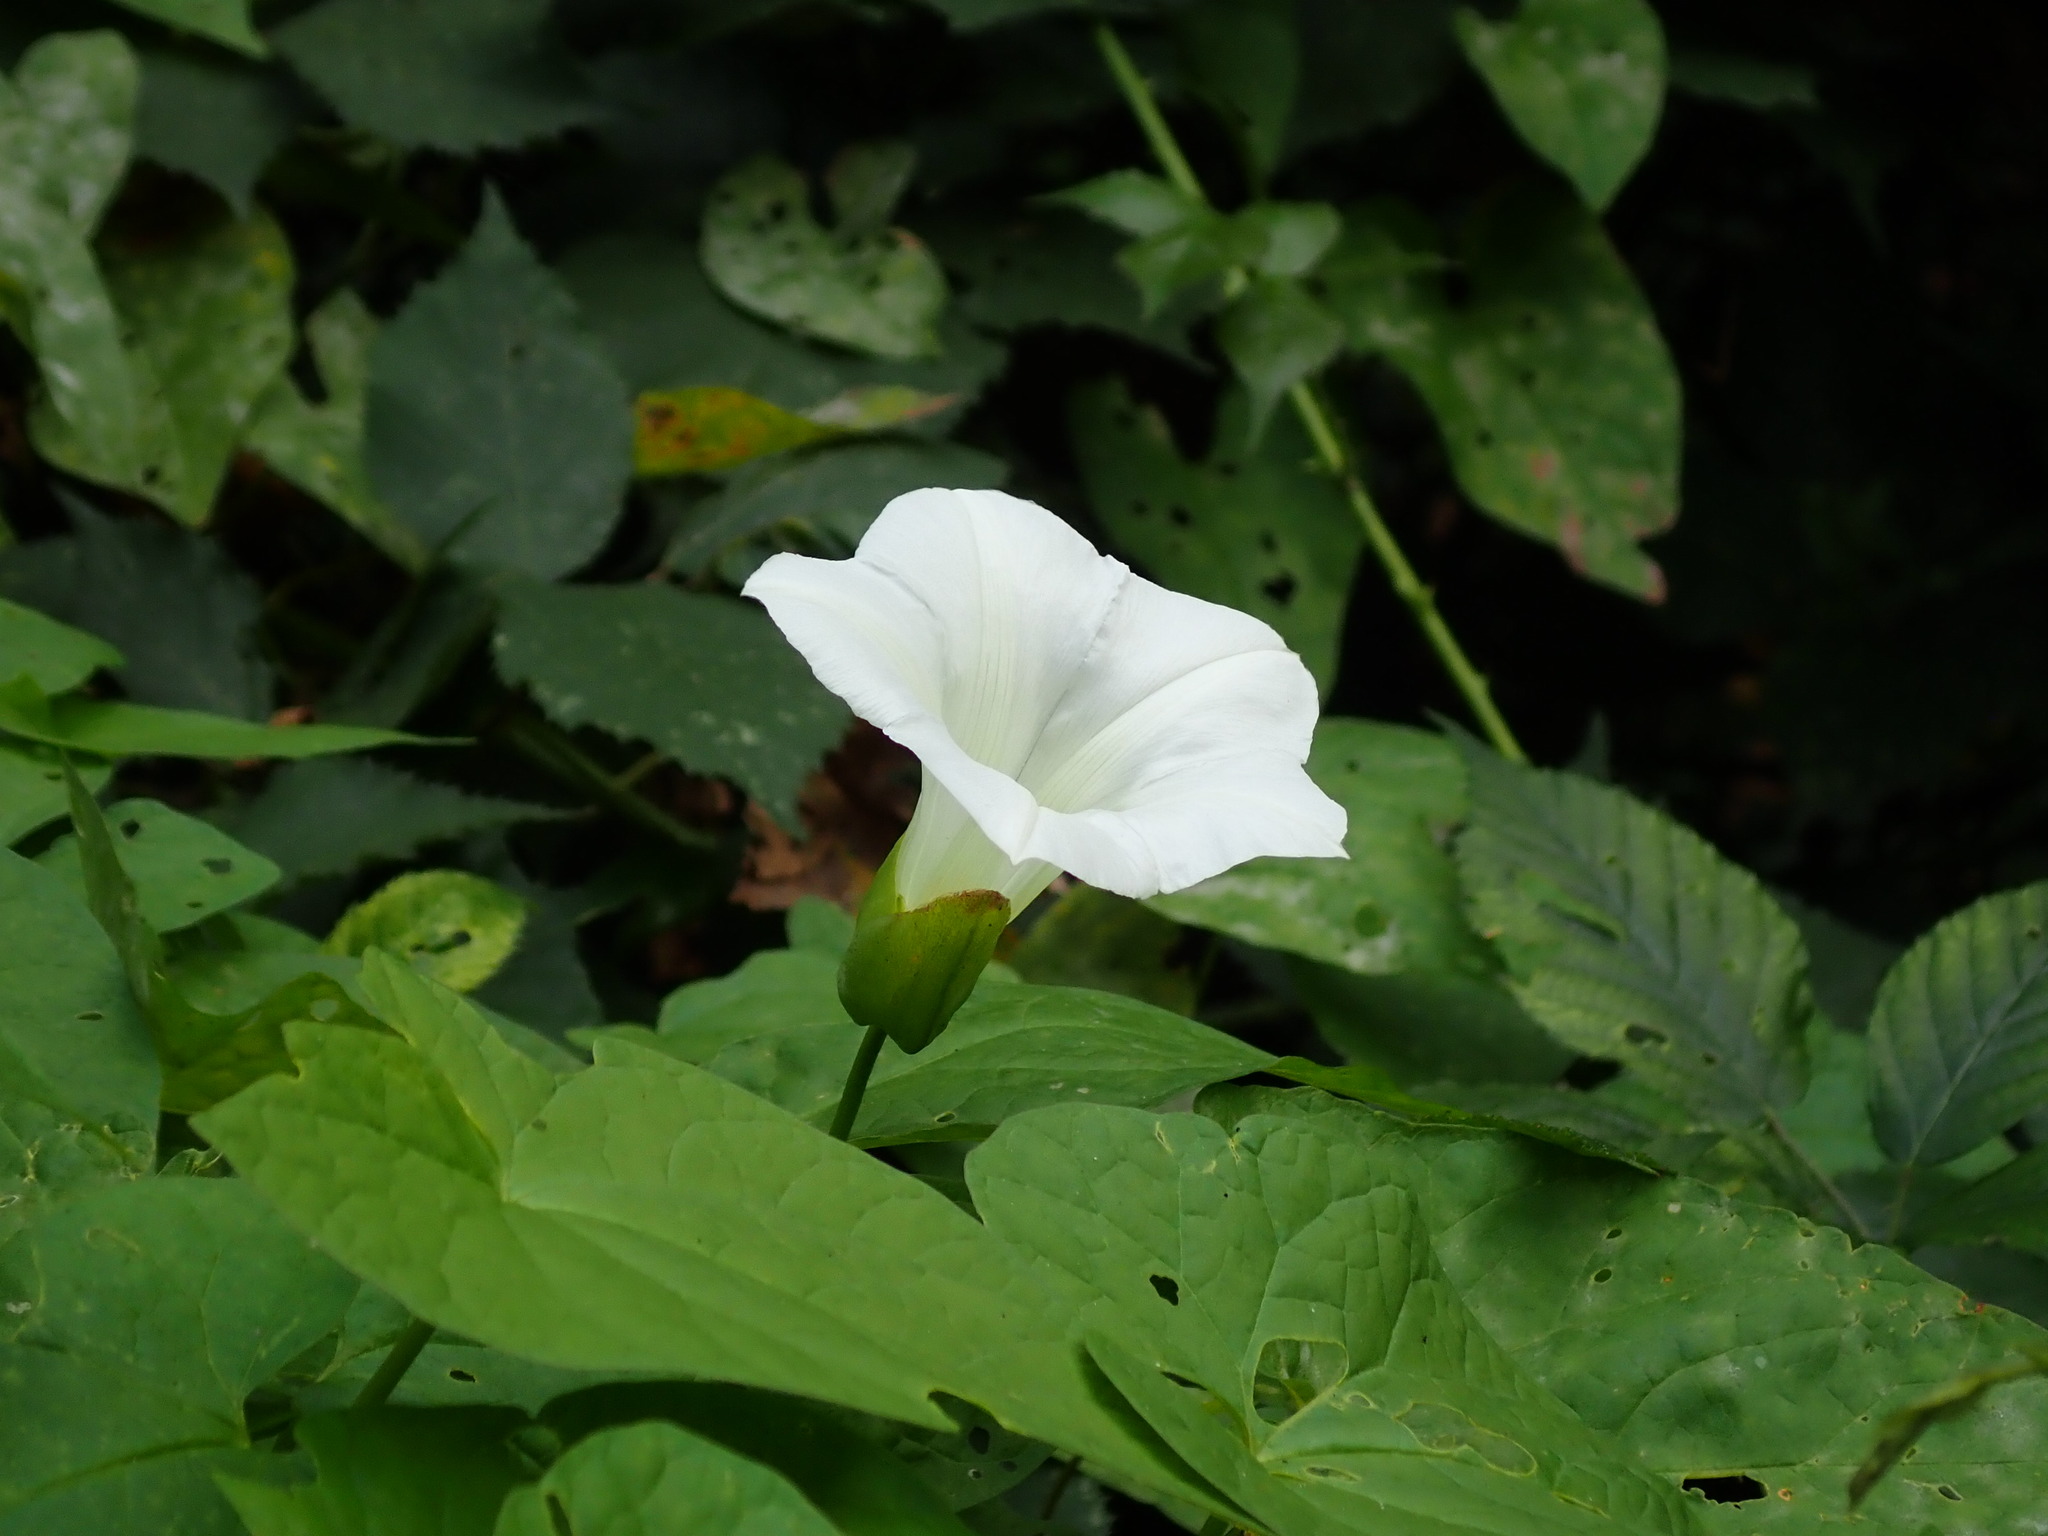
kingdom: Plantae
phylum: Tracheophyta
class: Magnoliopsida
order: Solanales
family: Convolvulaceae
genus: Calystegia
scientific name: Calystegia silvatica
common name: Large bindweed
